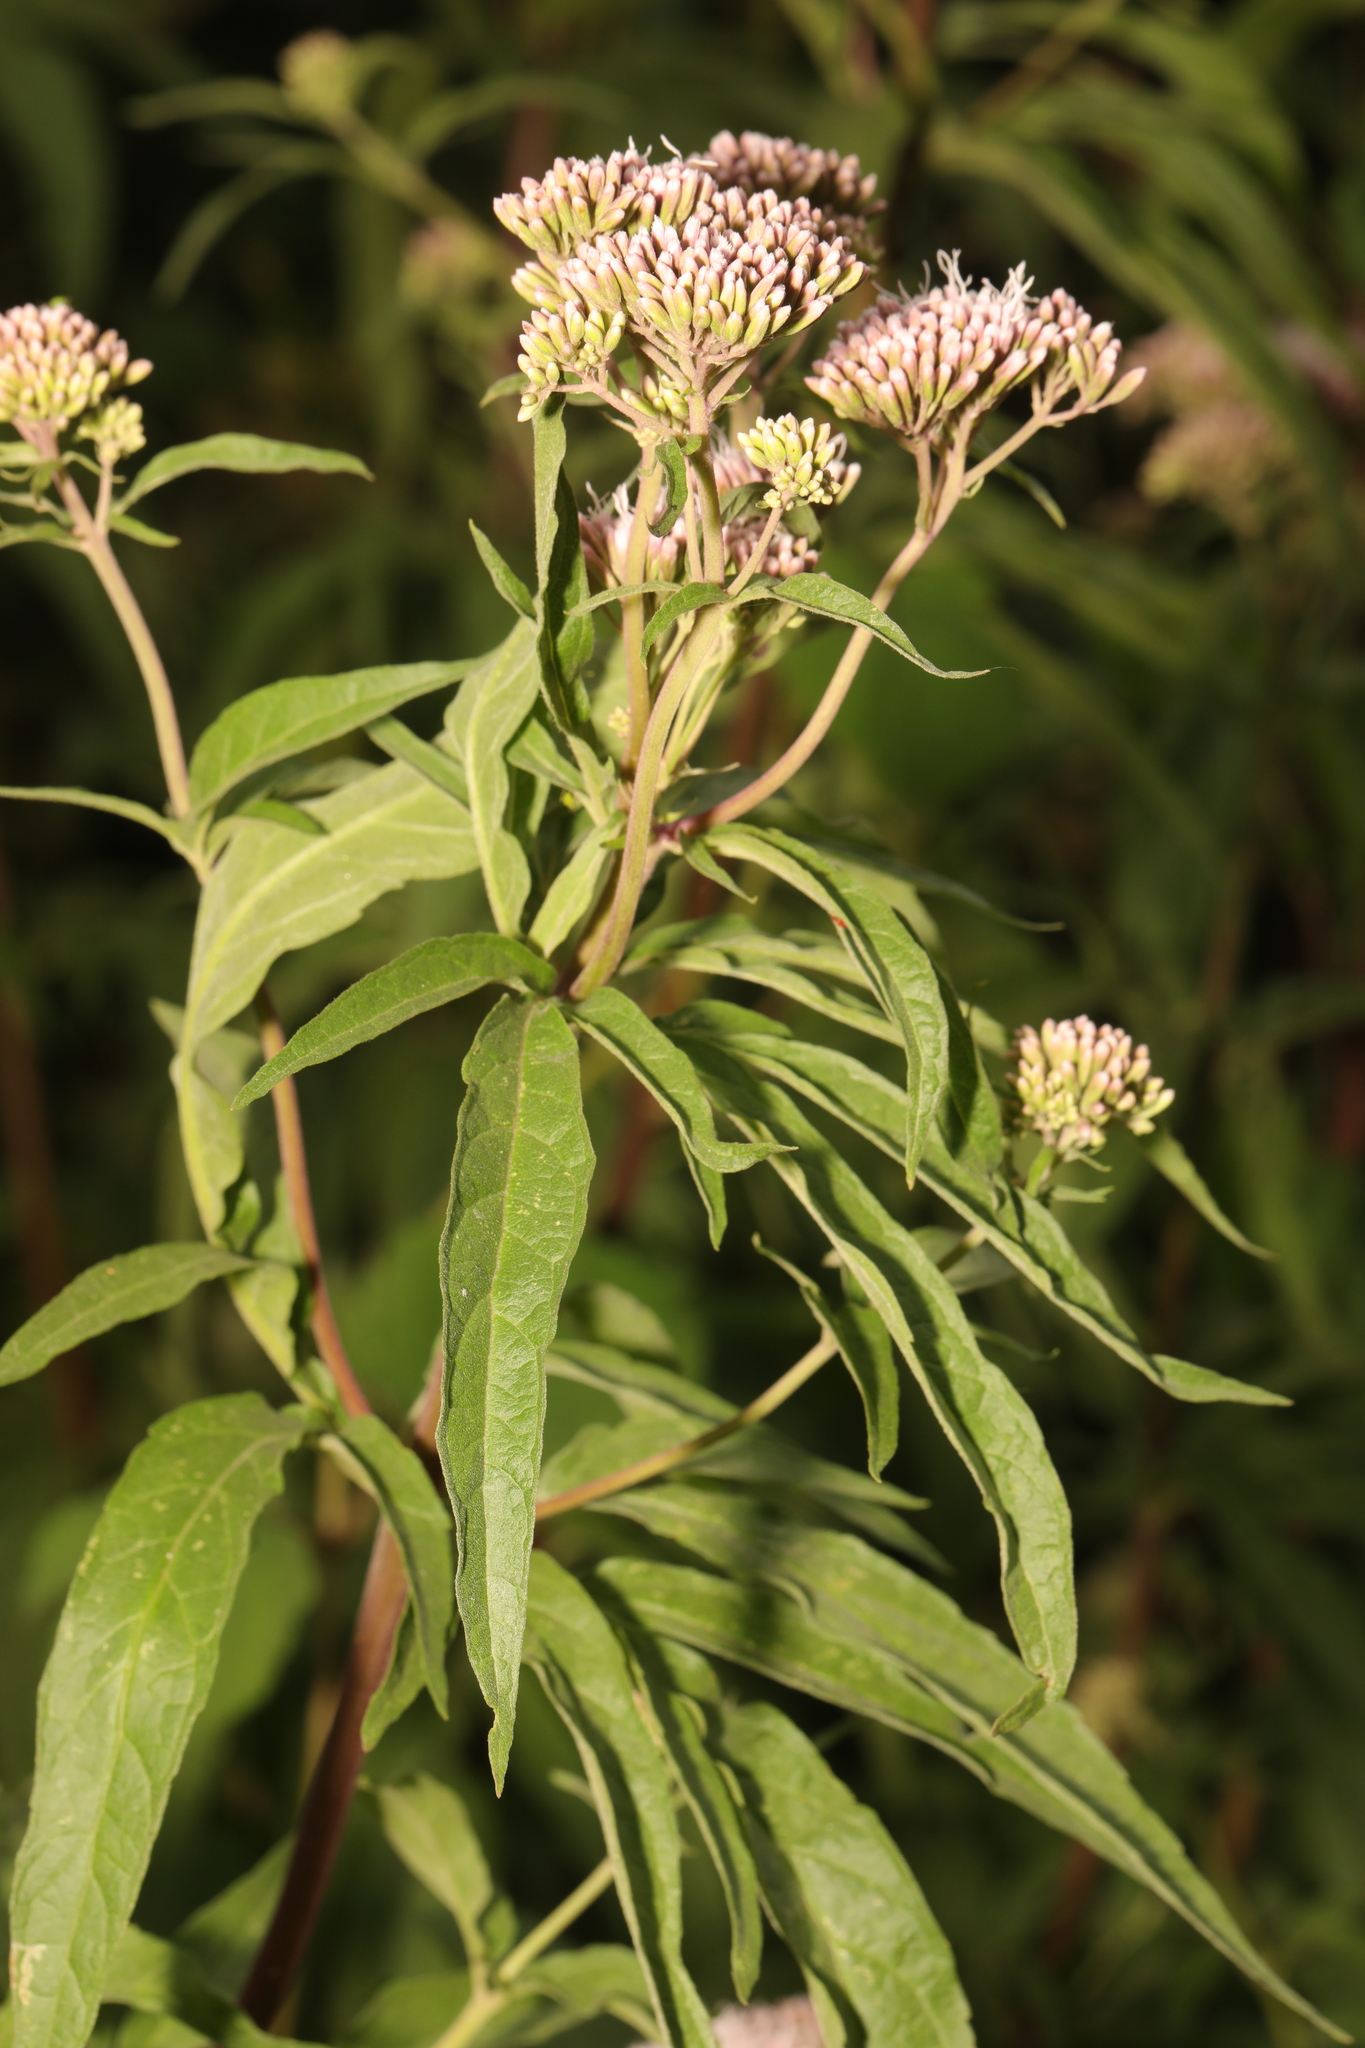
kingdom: Plantae
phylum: Tracheophyta
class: Magnoliopsida
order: Asterales
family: Asteraceae
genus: Eupatorium
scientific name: Eupatorium cannabinum
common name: Hemp-agrimony
